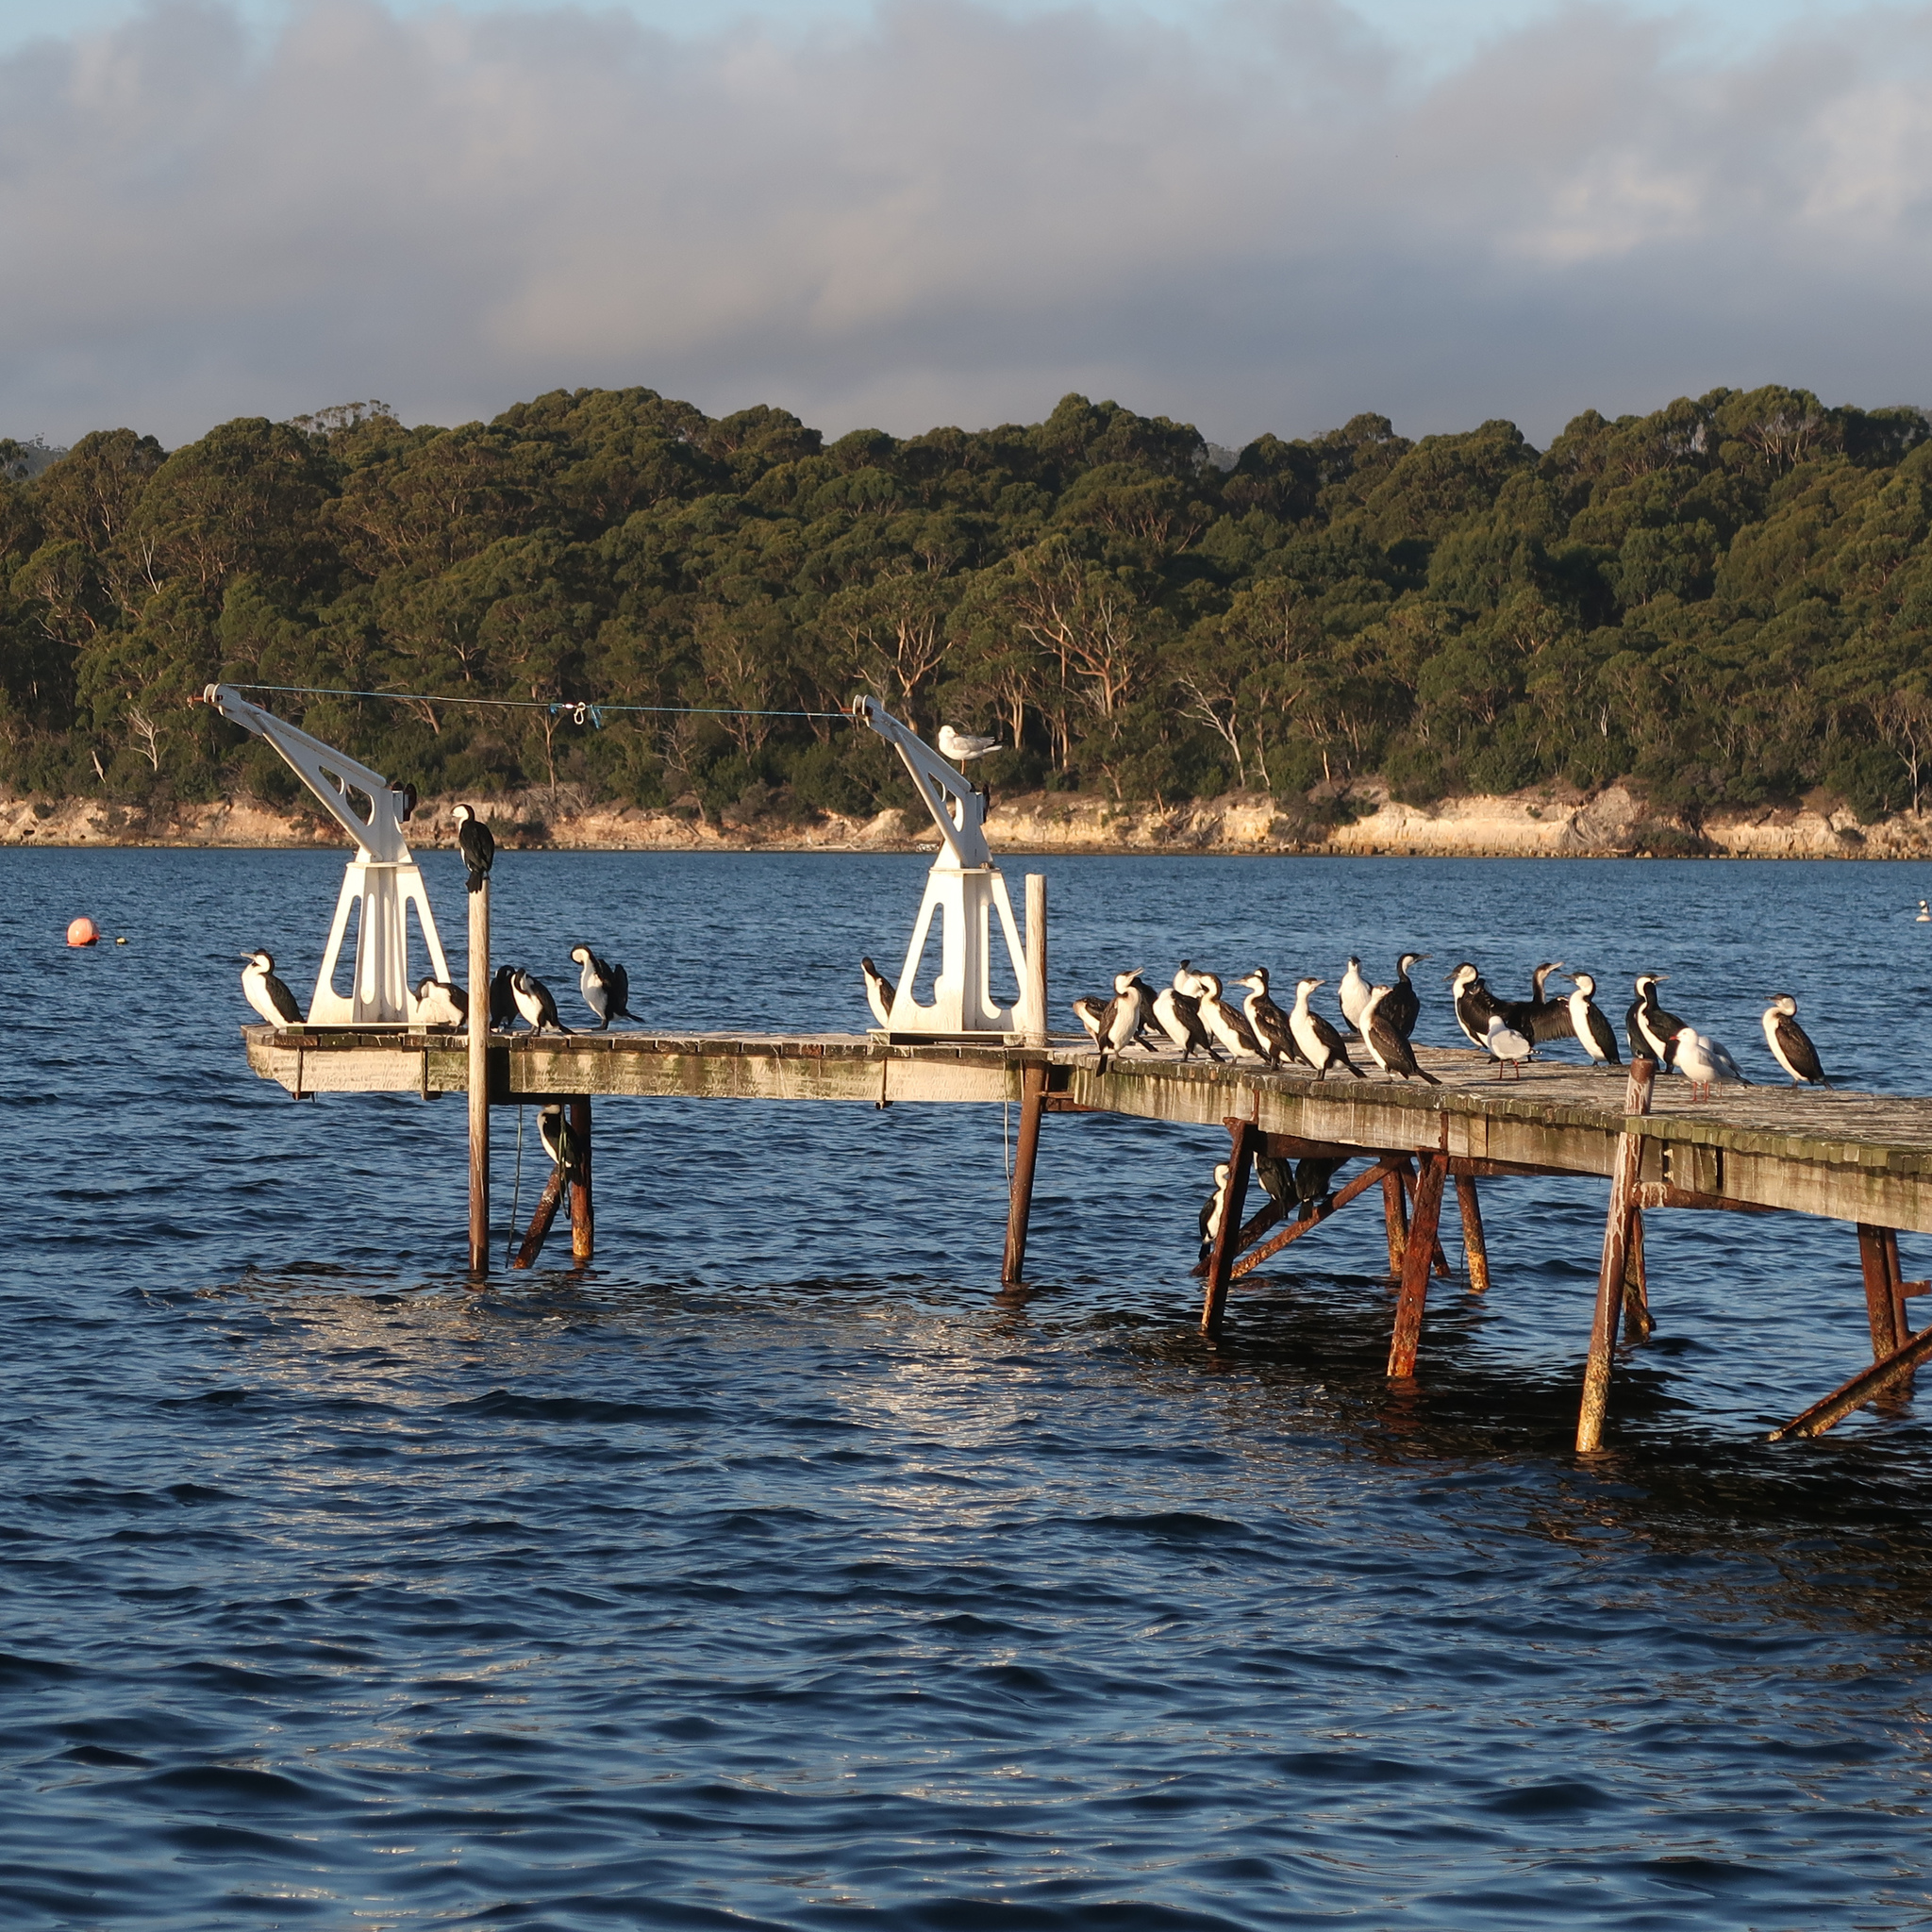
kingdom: Animalia
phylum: Chordata
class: Aves
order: Suliformes
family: Phalacrocoracidae
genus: Phalacrocorax
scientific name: Phalacrocorax fuscescens
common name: Black-faced cormorant
